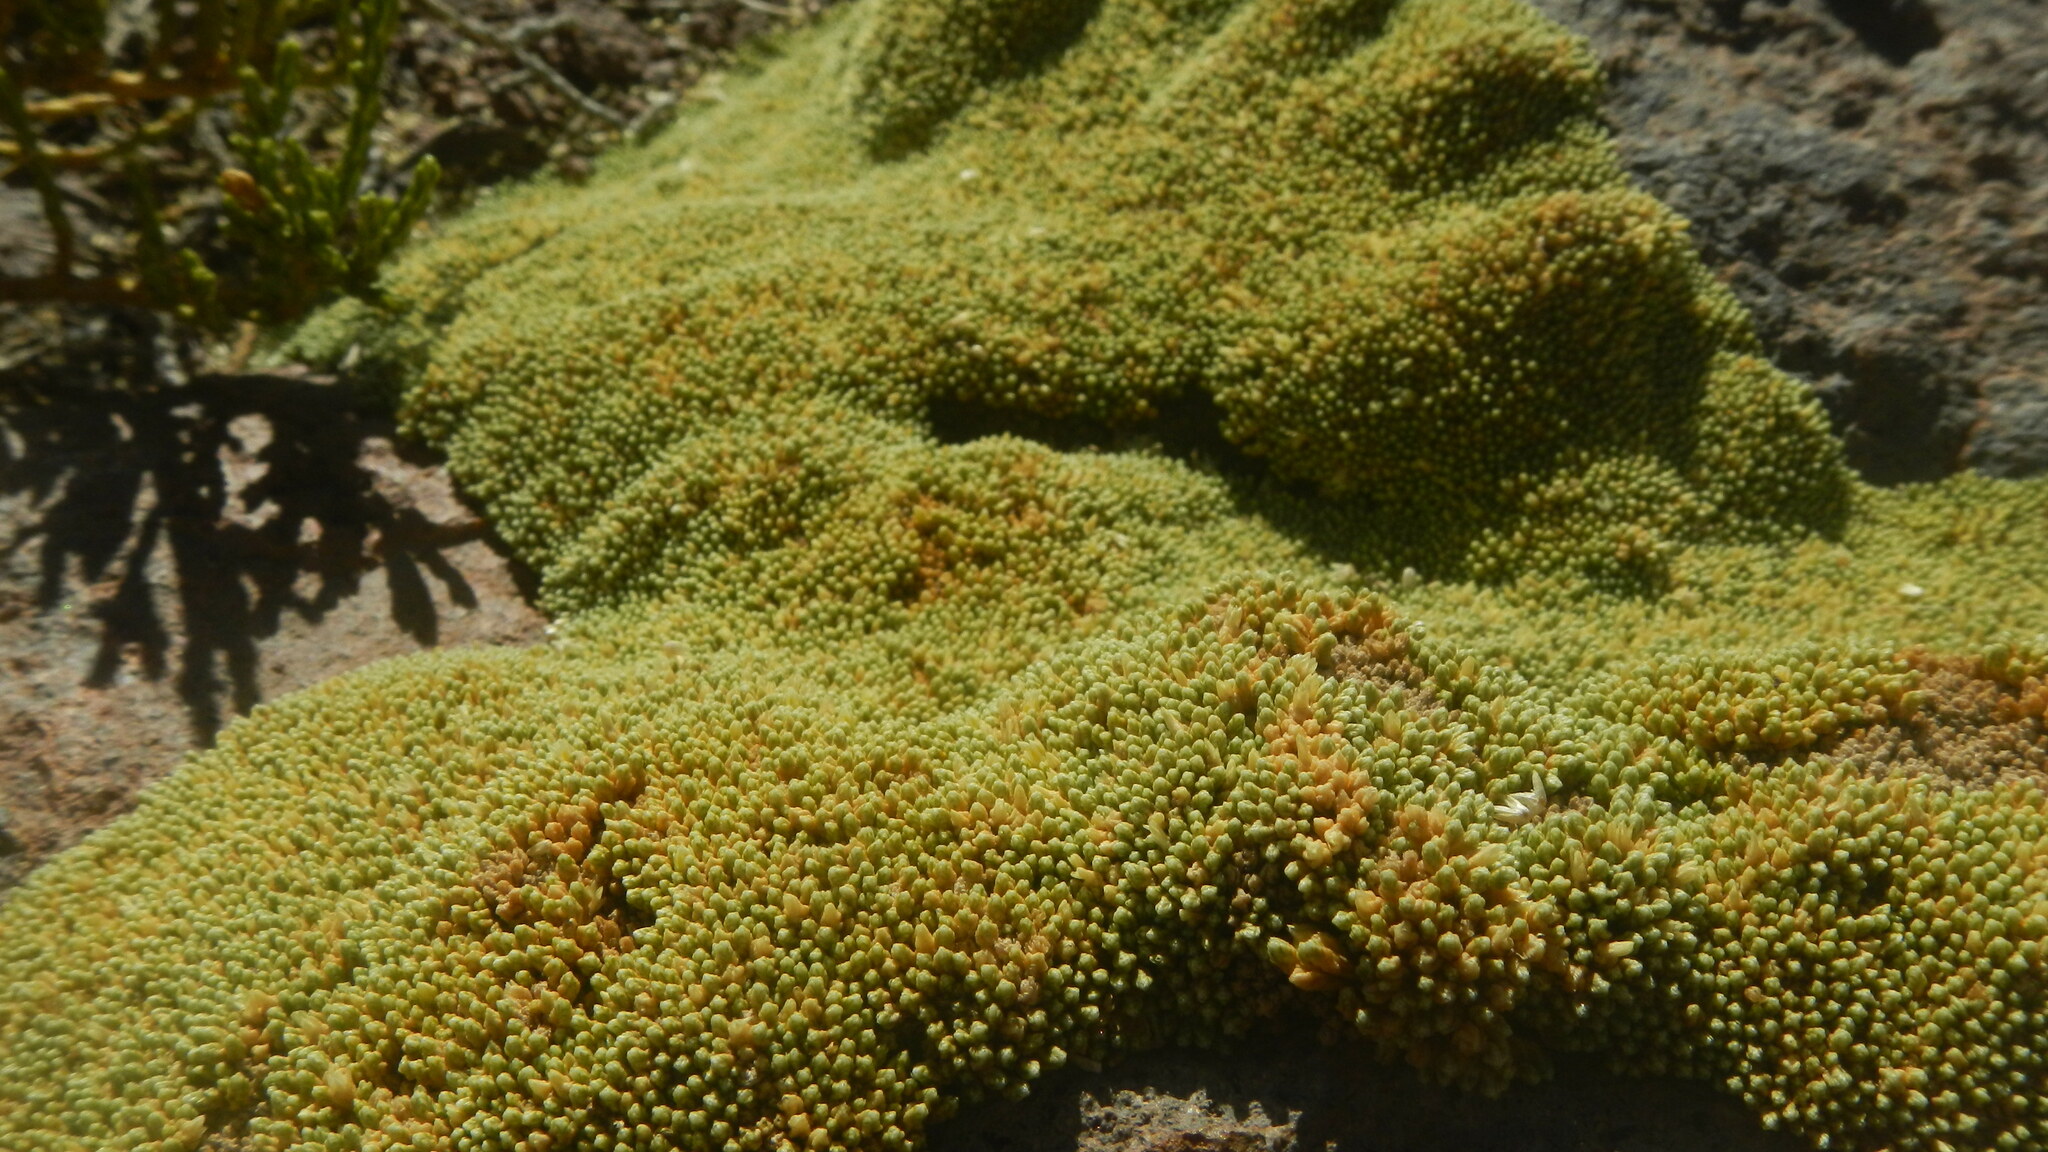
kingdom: Plantae
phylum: Tracheophyta
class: Magnoliopsida
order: Caryophyllales
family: Caryophyllaceae
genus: Pycnophyllum
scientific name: Pycnophyllum bryoides
